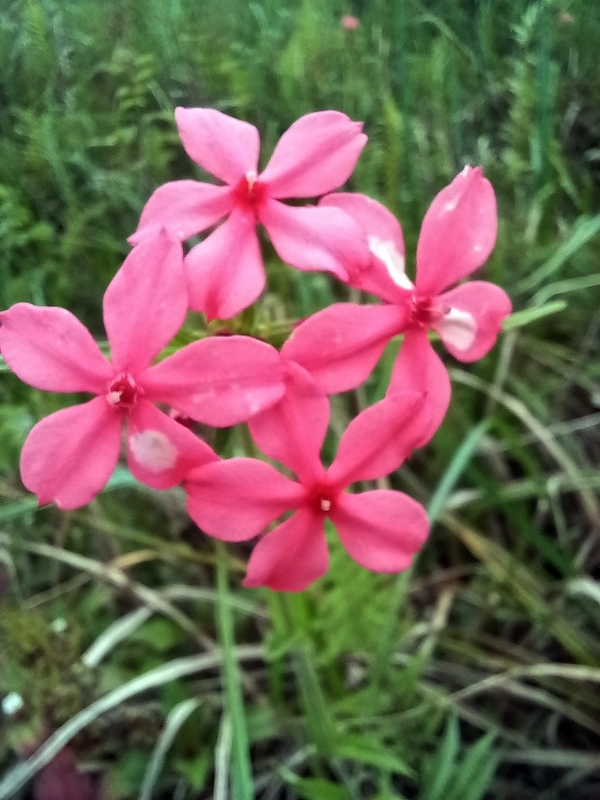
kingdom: Plantae
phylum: Tracheophyta
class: Magnoliopsida
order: Gentianales
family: Rubiaceae
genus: Otomeria
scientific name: Otomeria elatior
